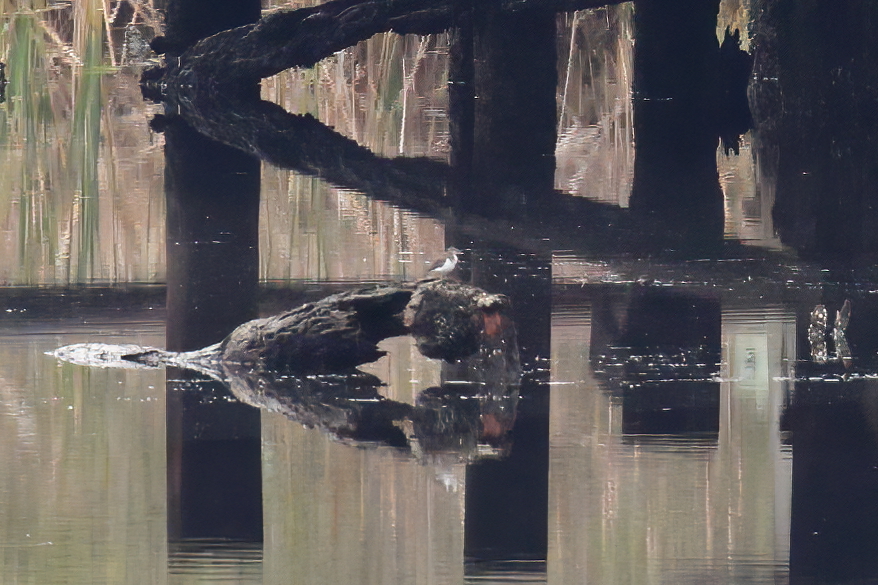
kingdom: Animalia
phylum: Chordata
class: Aves
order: Charadriiformes
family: Scolopacidae
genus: Actitis
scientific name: Actitis macularius
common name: Spotted sandpiper
